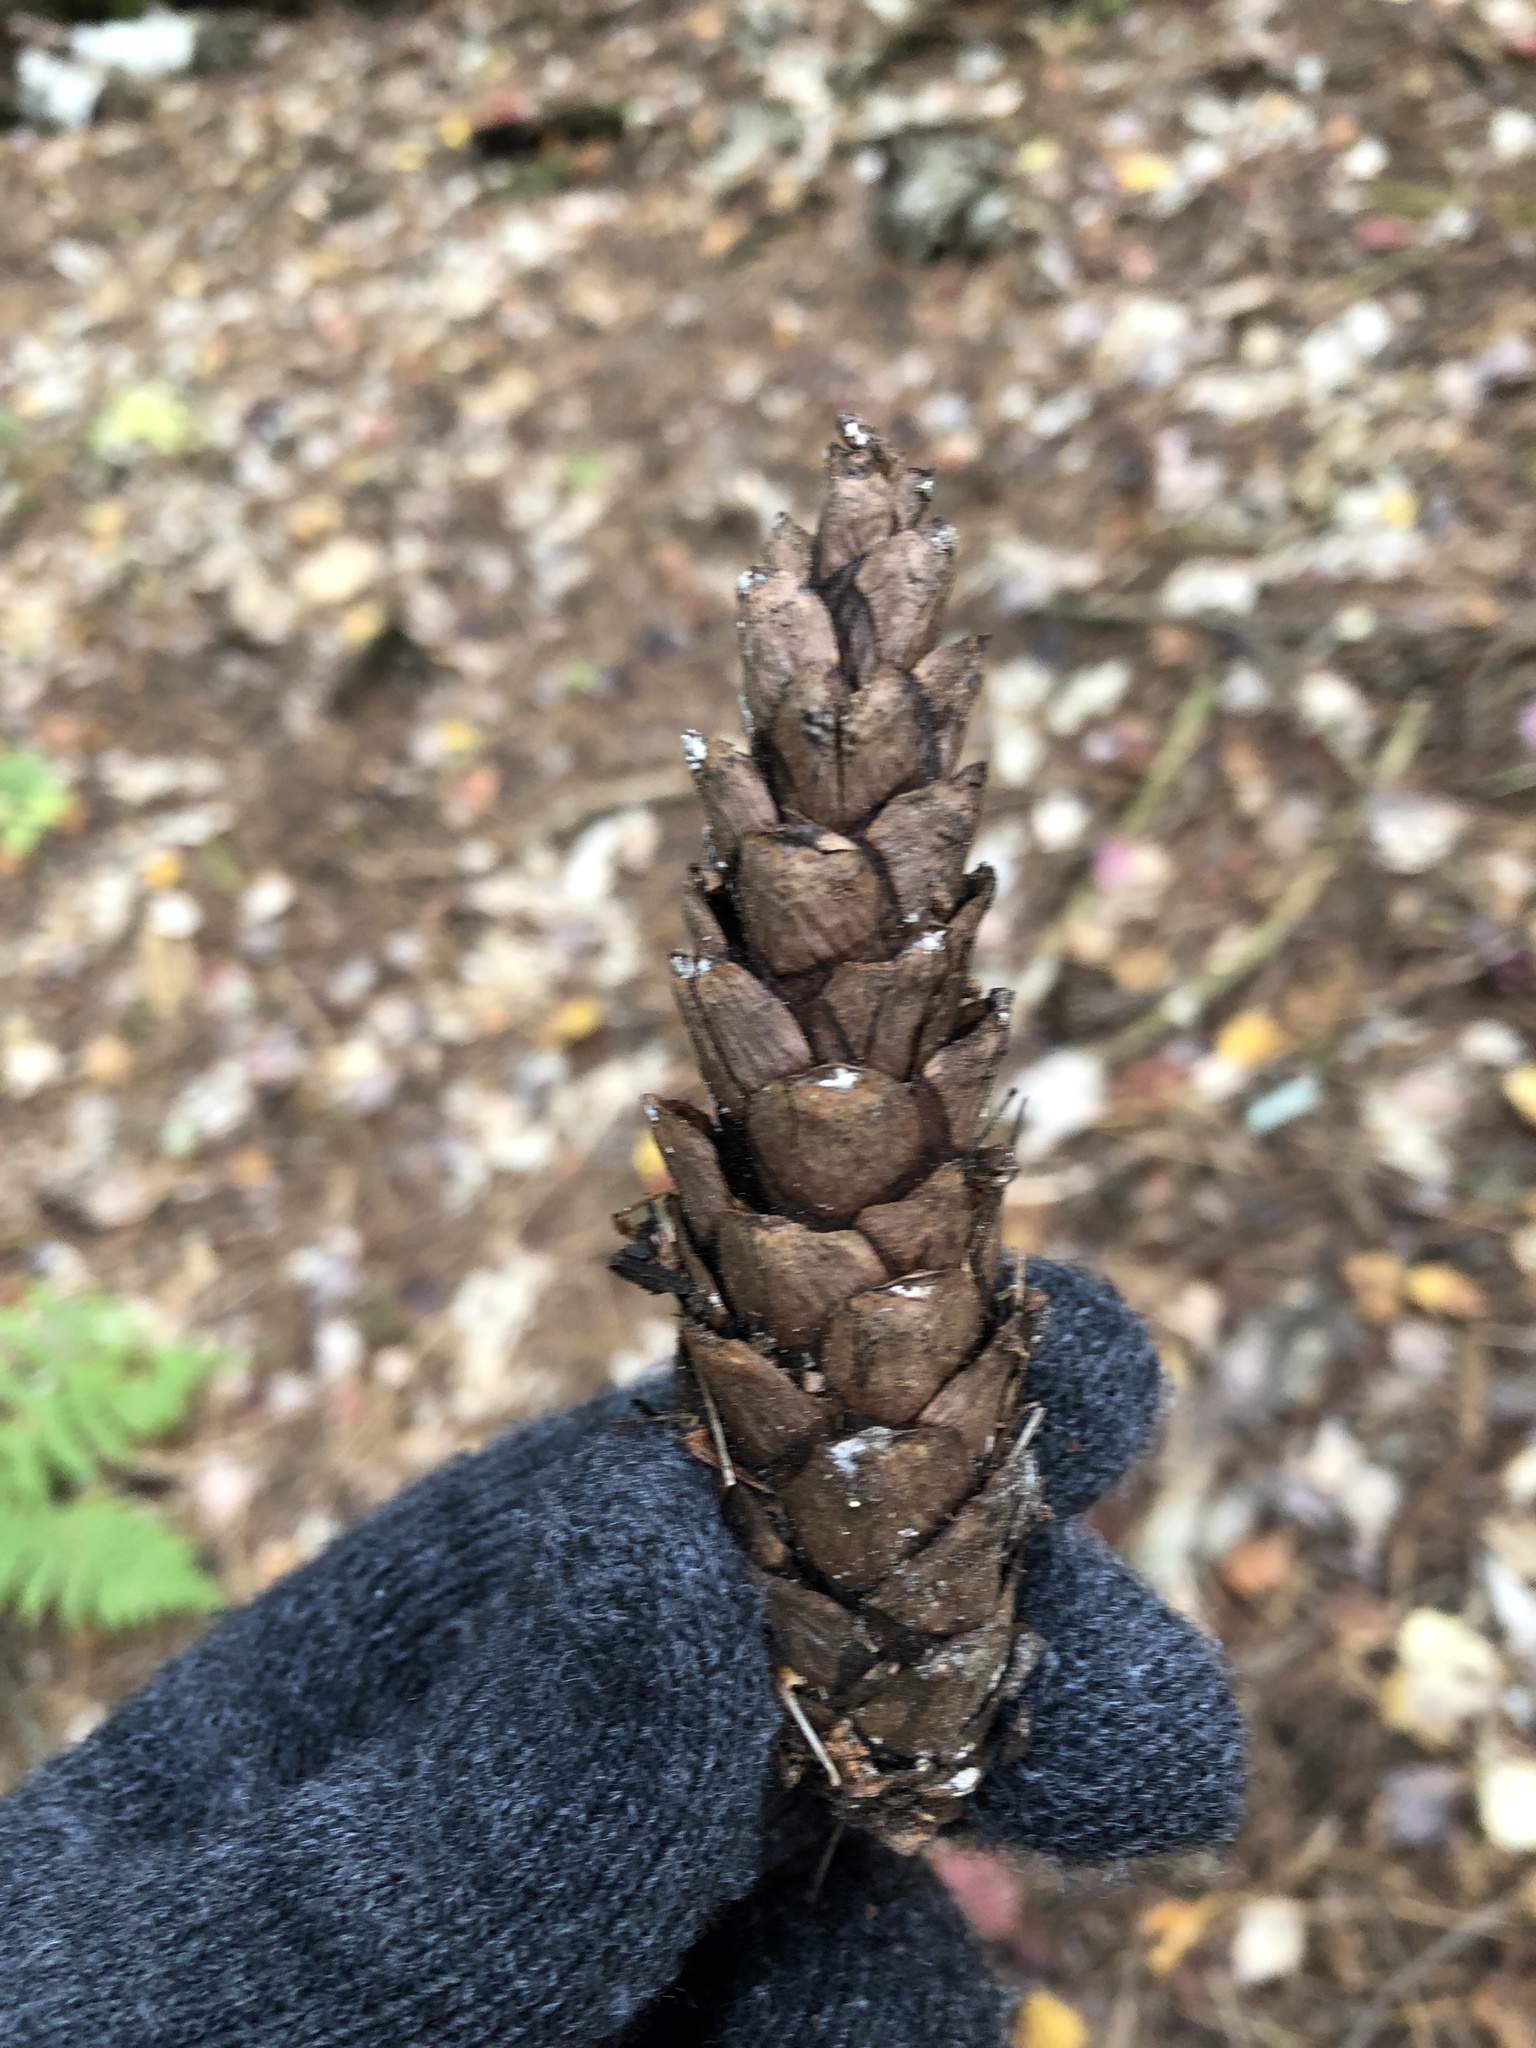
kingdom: Plantae
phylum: Tracheophyta
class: Pinopsida
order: Pinales
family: Pinaceae
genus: Pinus
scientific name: Pinus strobus
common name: Weymouth pine
